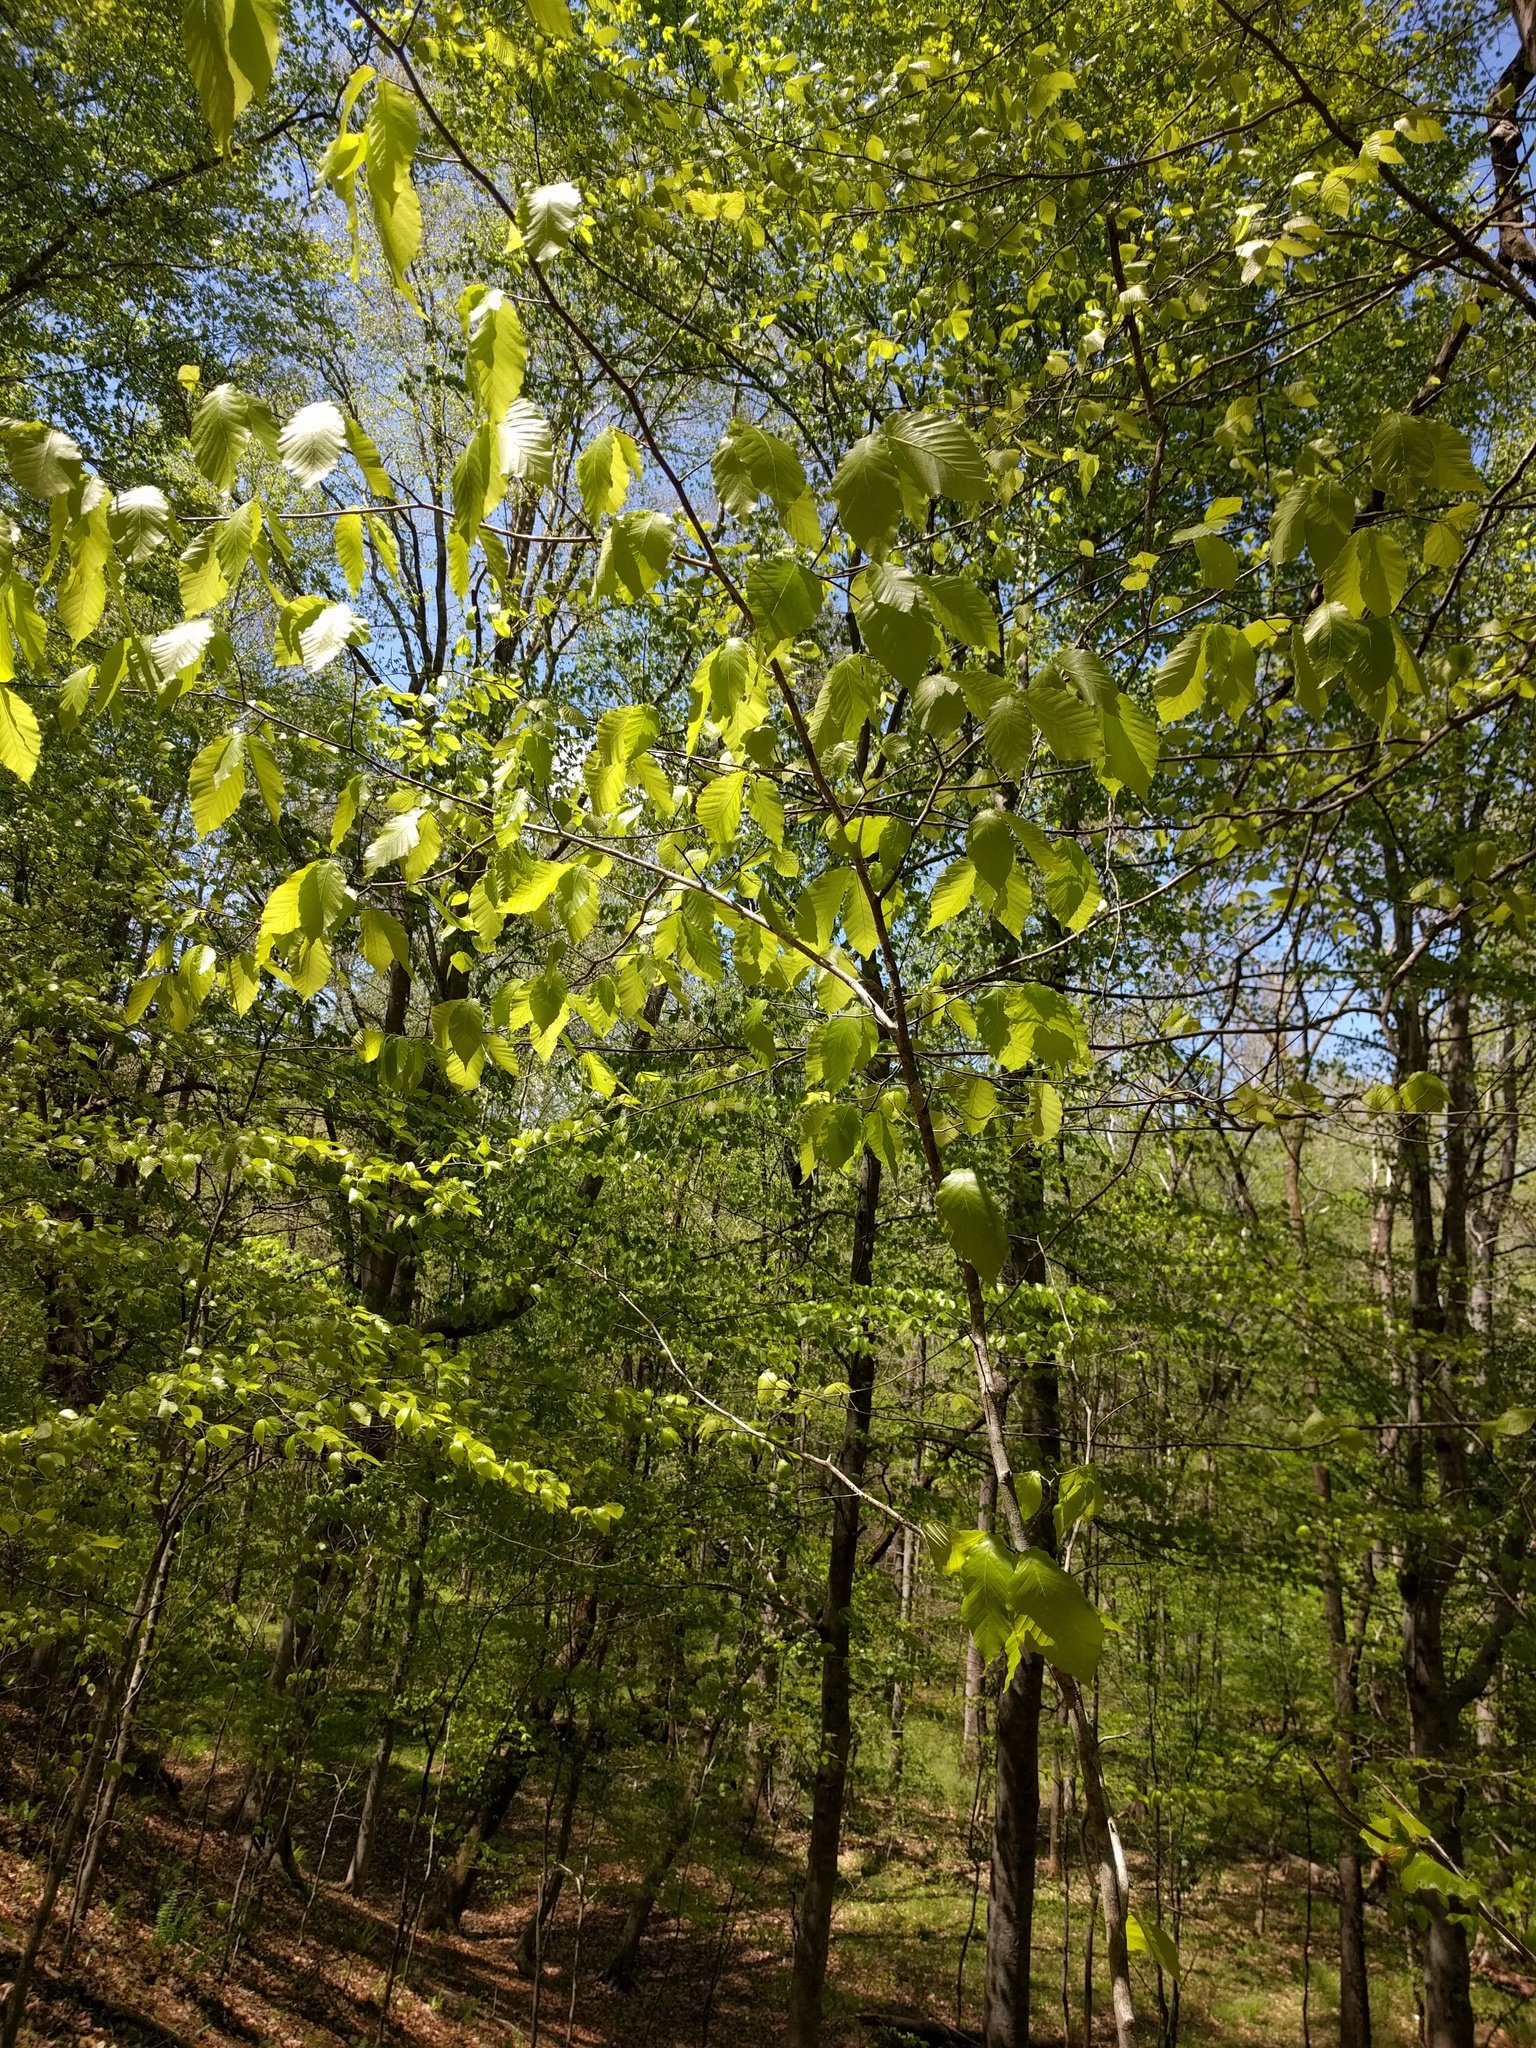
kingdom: Plantae
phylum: Tracheophyta
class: Magnoliopsida
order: Fagales
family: Fagaceae
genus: Fagus
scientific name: Fagus grandifolia
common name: American beech
